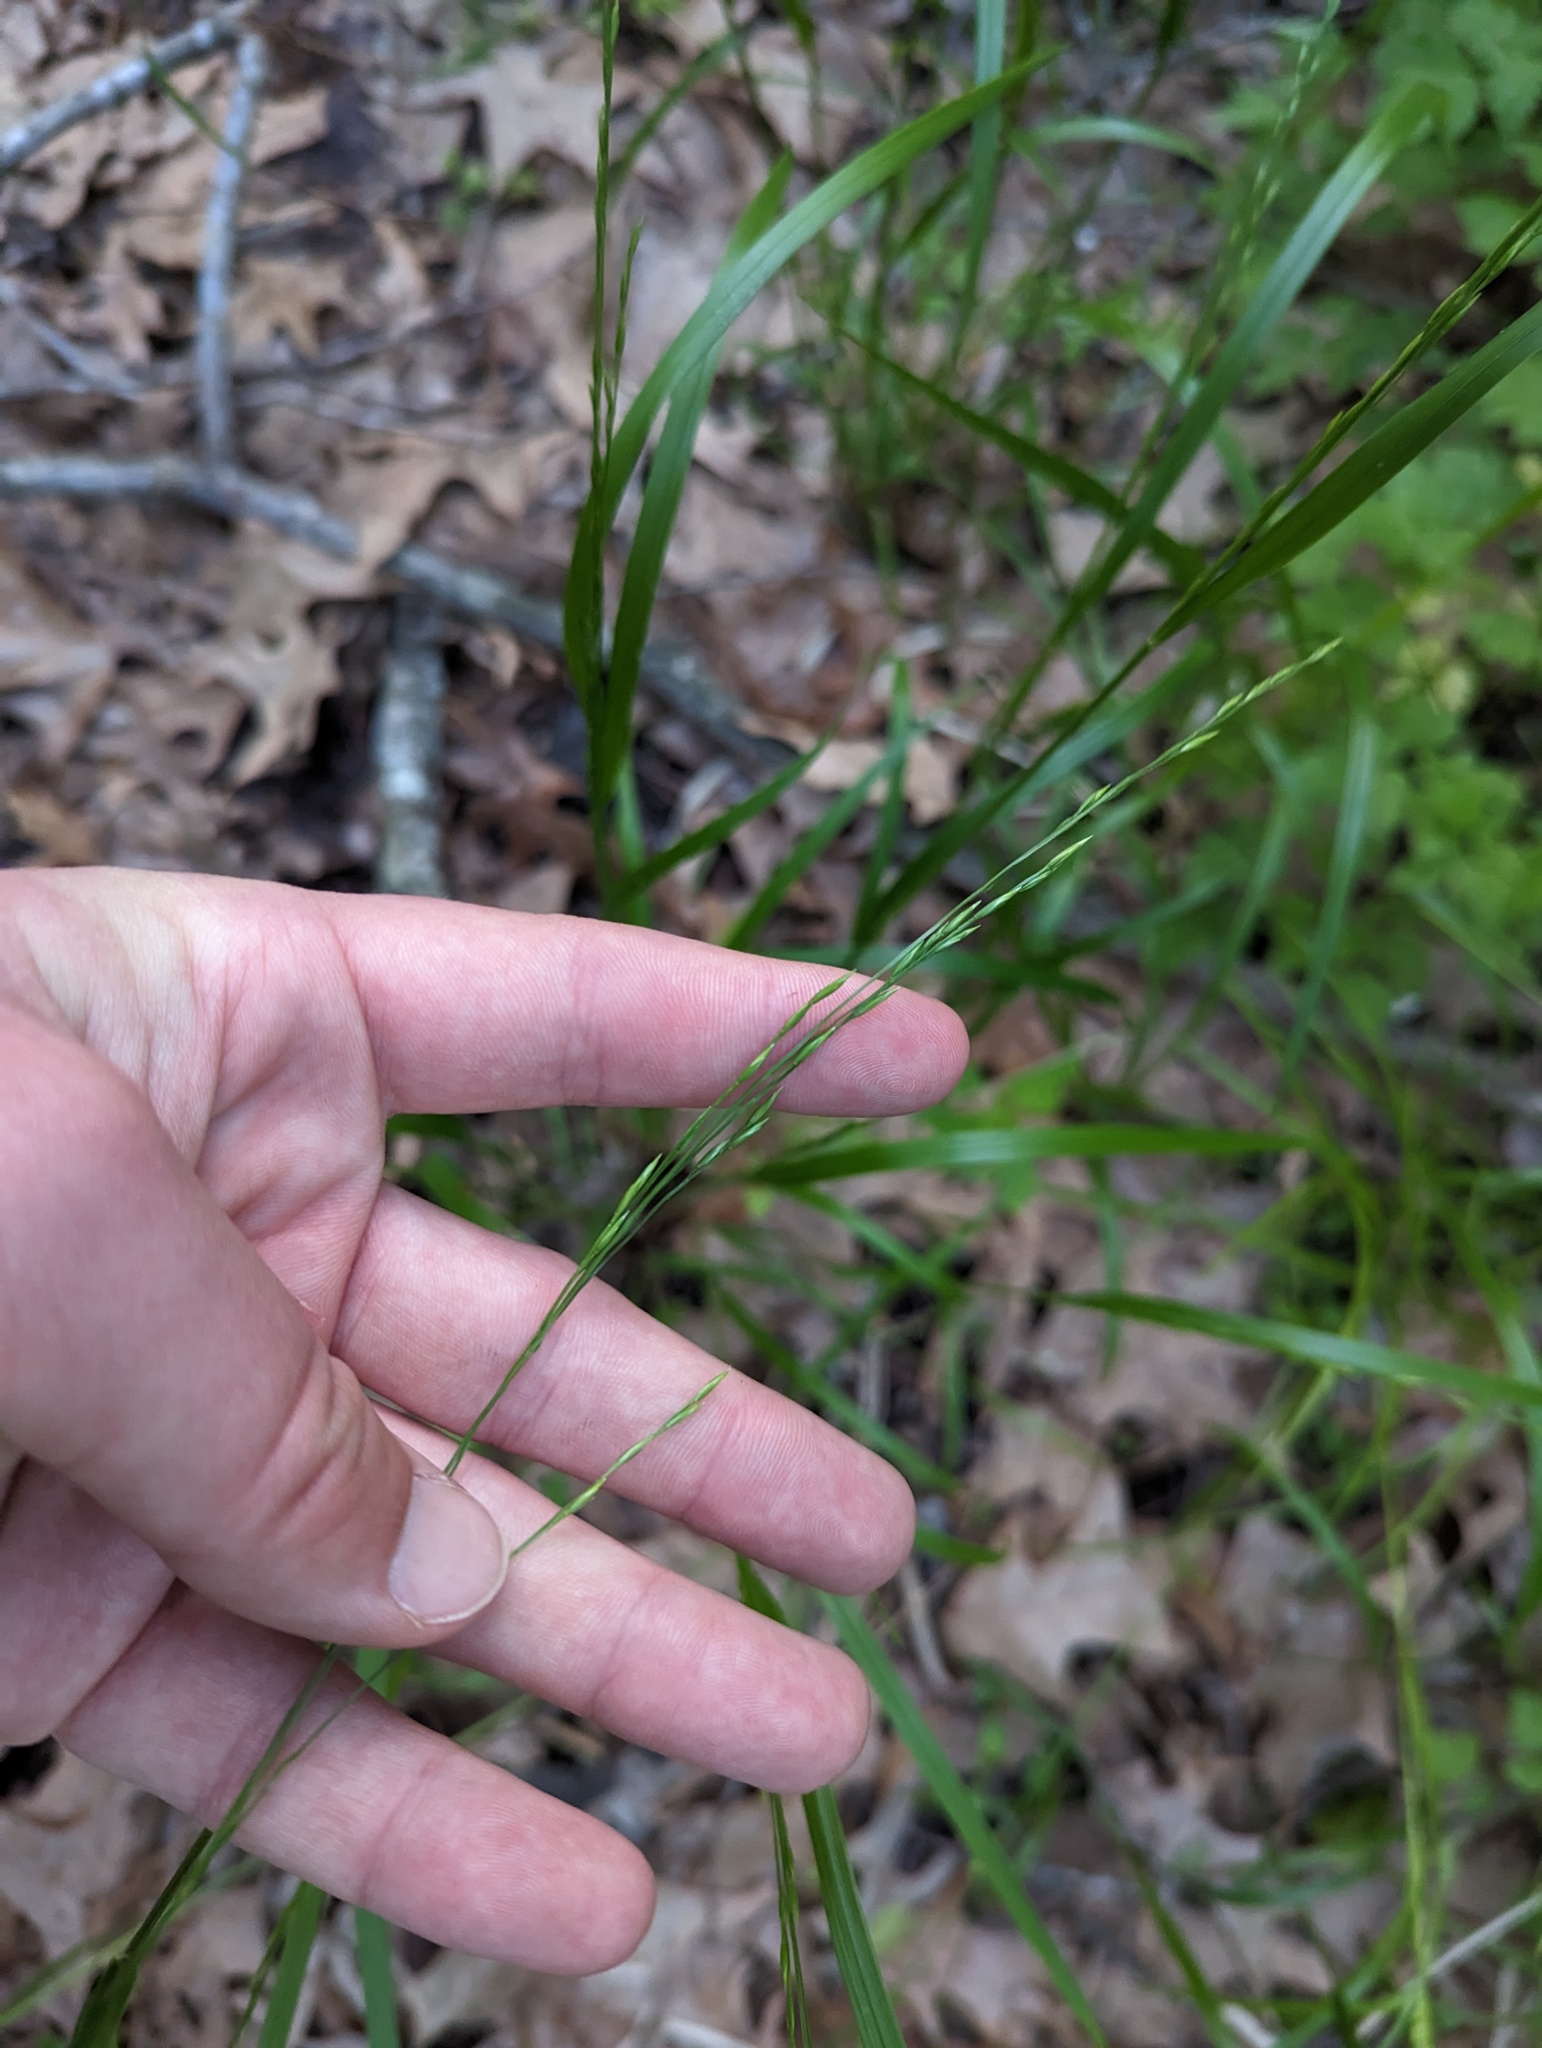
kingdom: Plantae
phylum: Tracheophyta
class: Liliopsida
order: Poales
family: Poaceae
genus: Festuca
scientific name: Festuca subverticillata
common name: Nodding fescue
